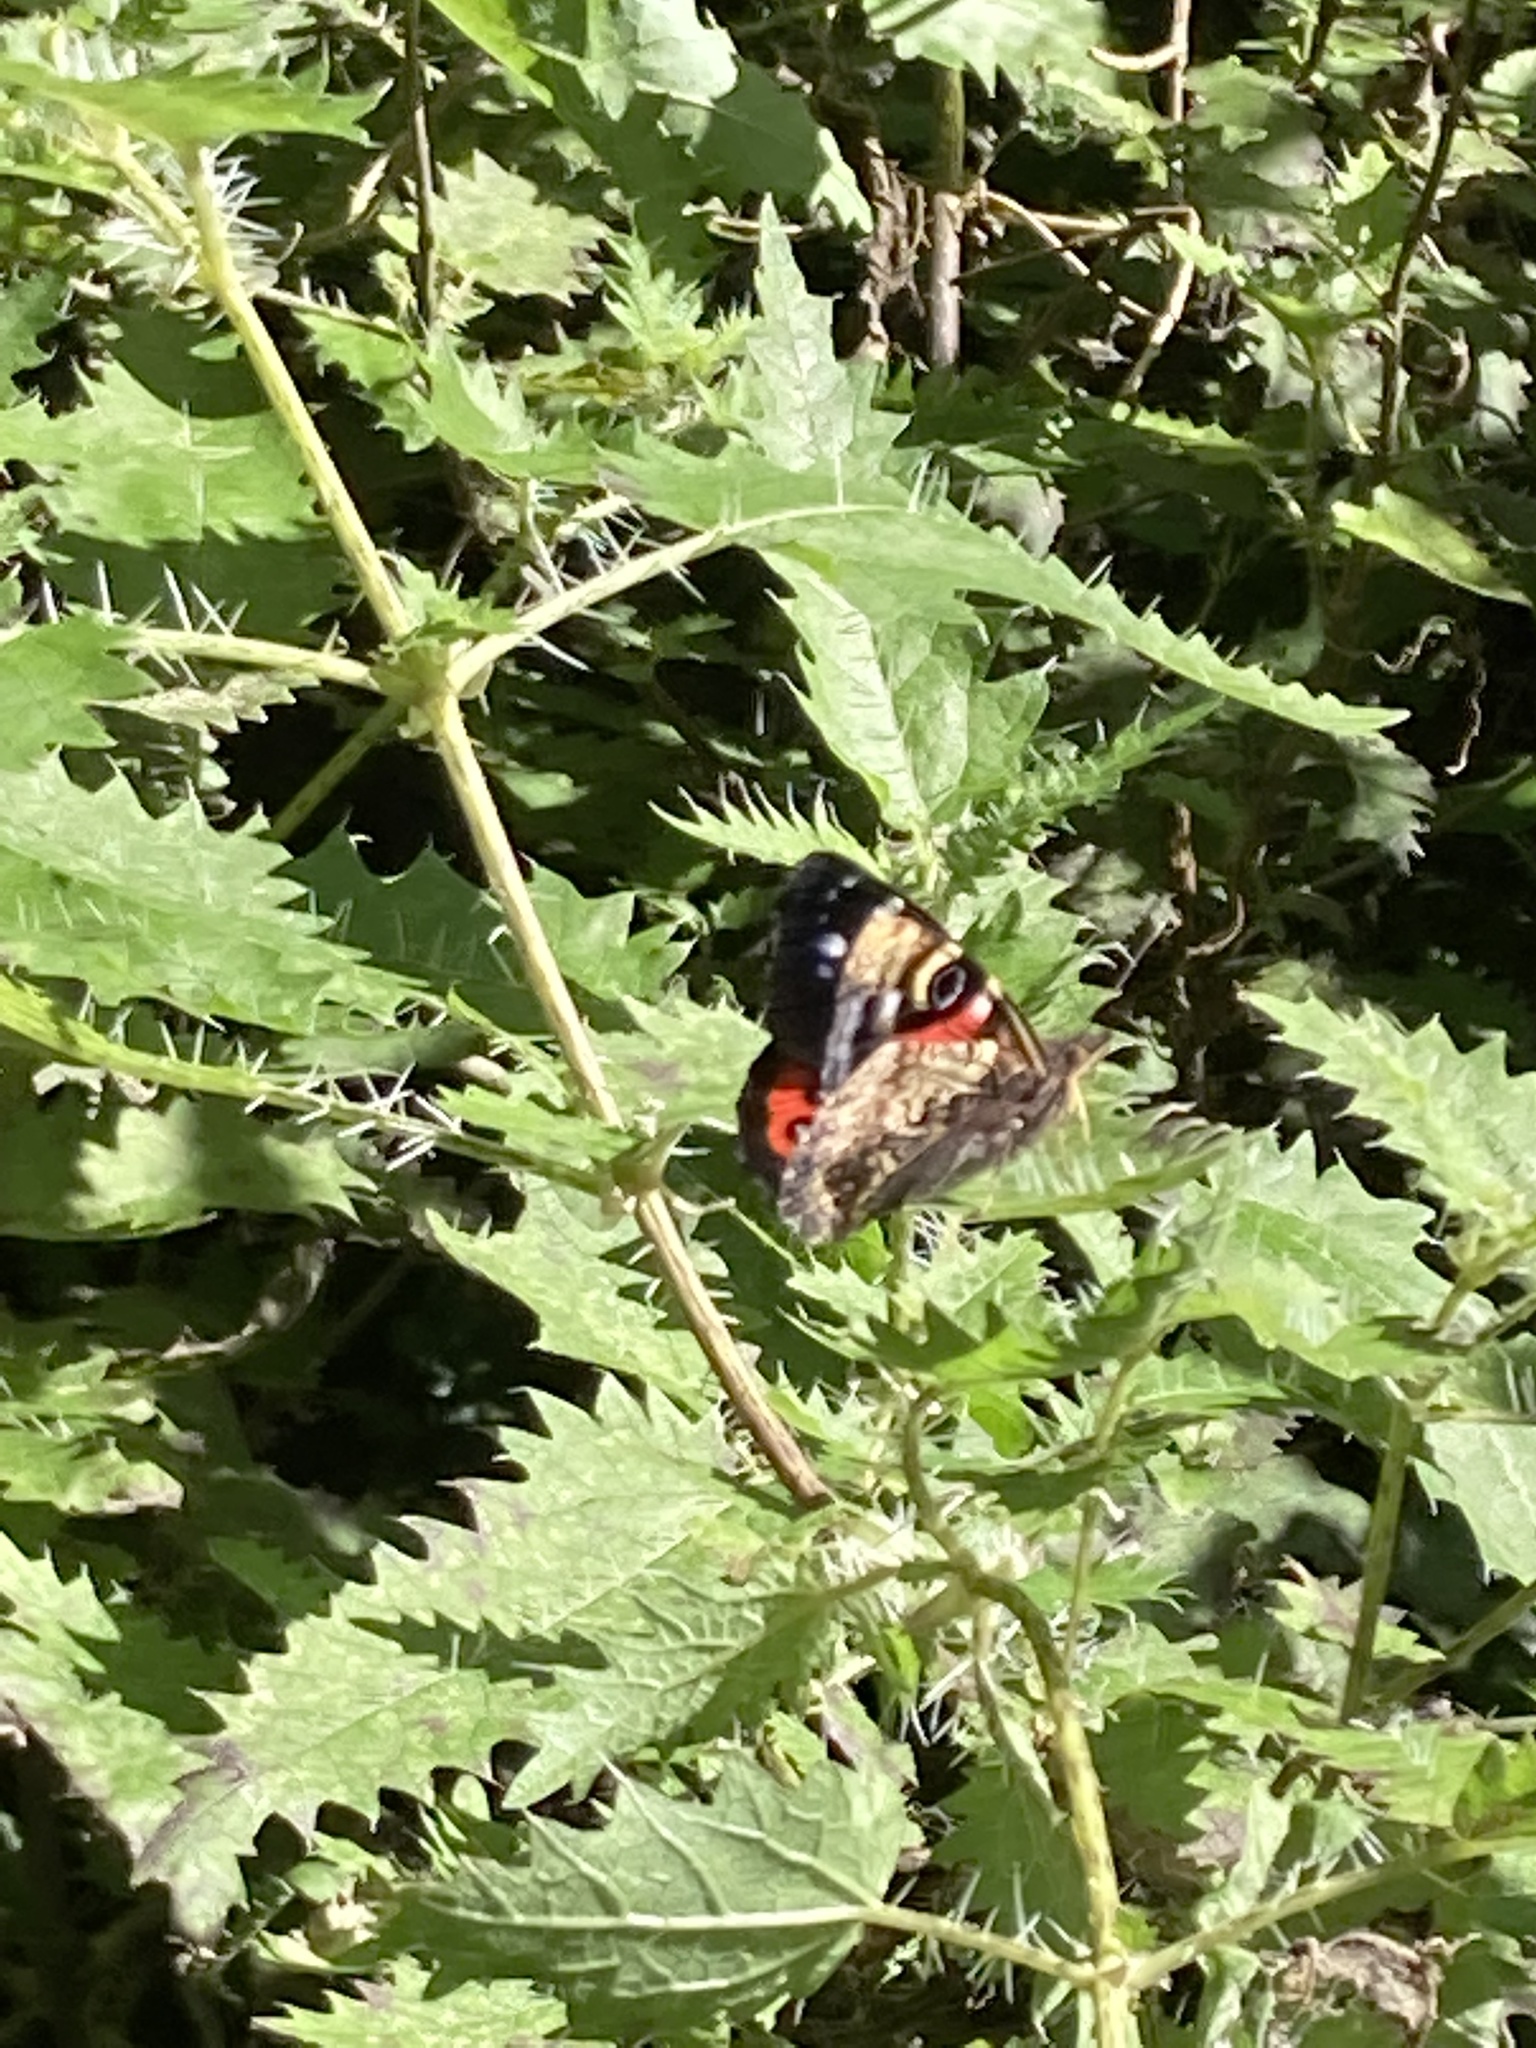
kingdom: Animalia
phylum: Arthropoda
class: Insecta
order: Lepidoptera
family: Nymphalidae
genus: Vanessa
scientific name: Vanessa gonerilla
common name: New zealand red admiral
